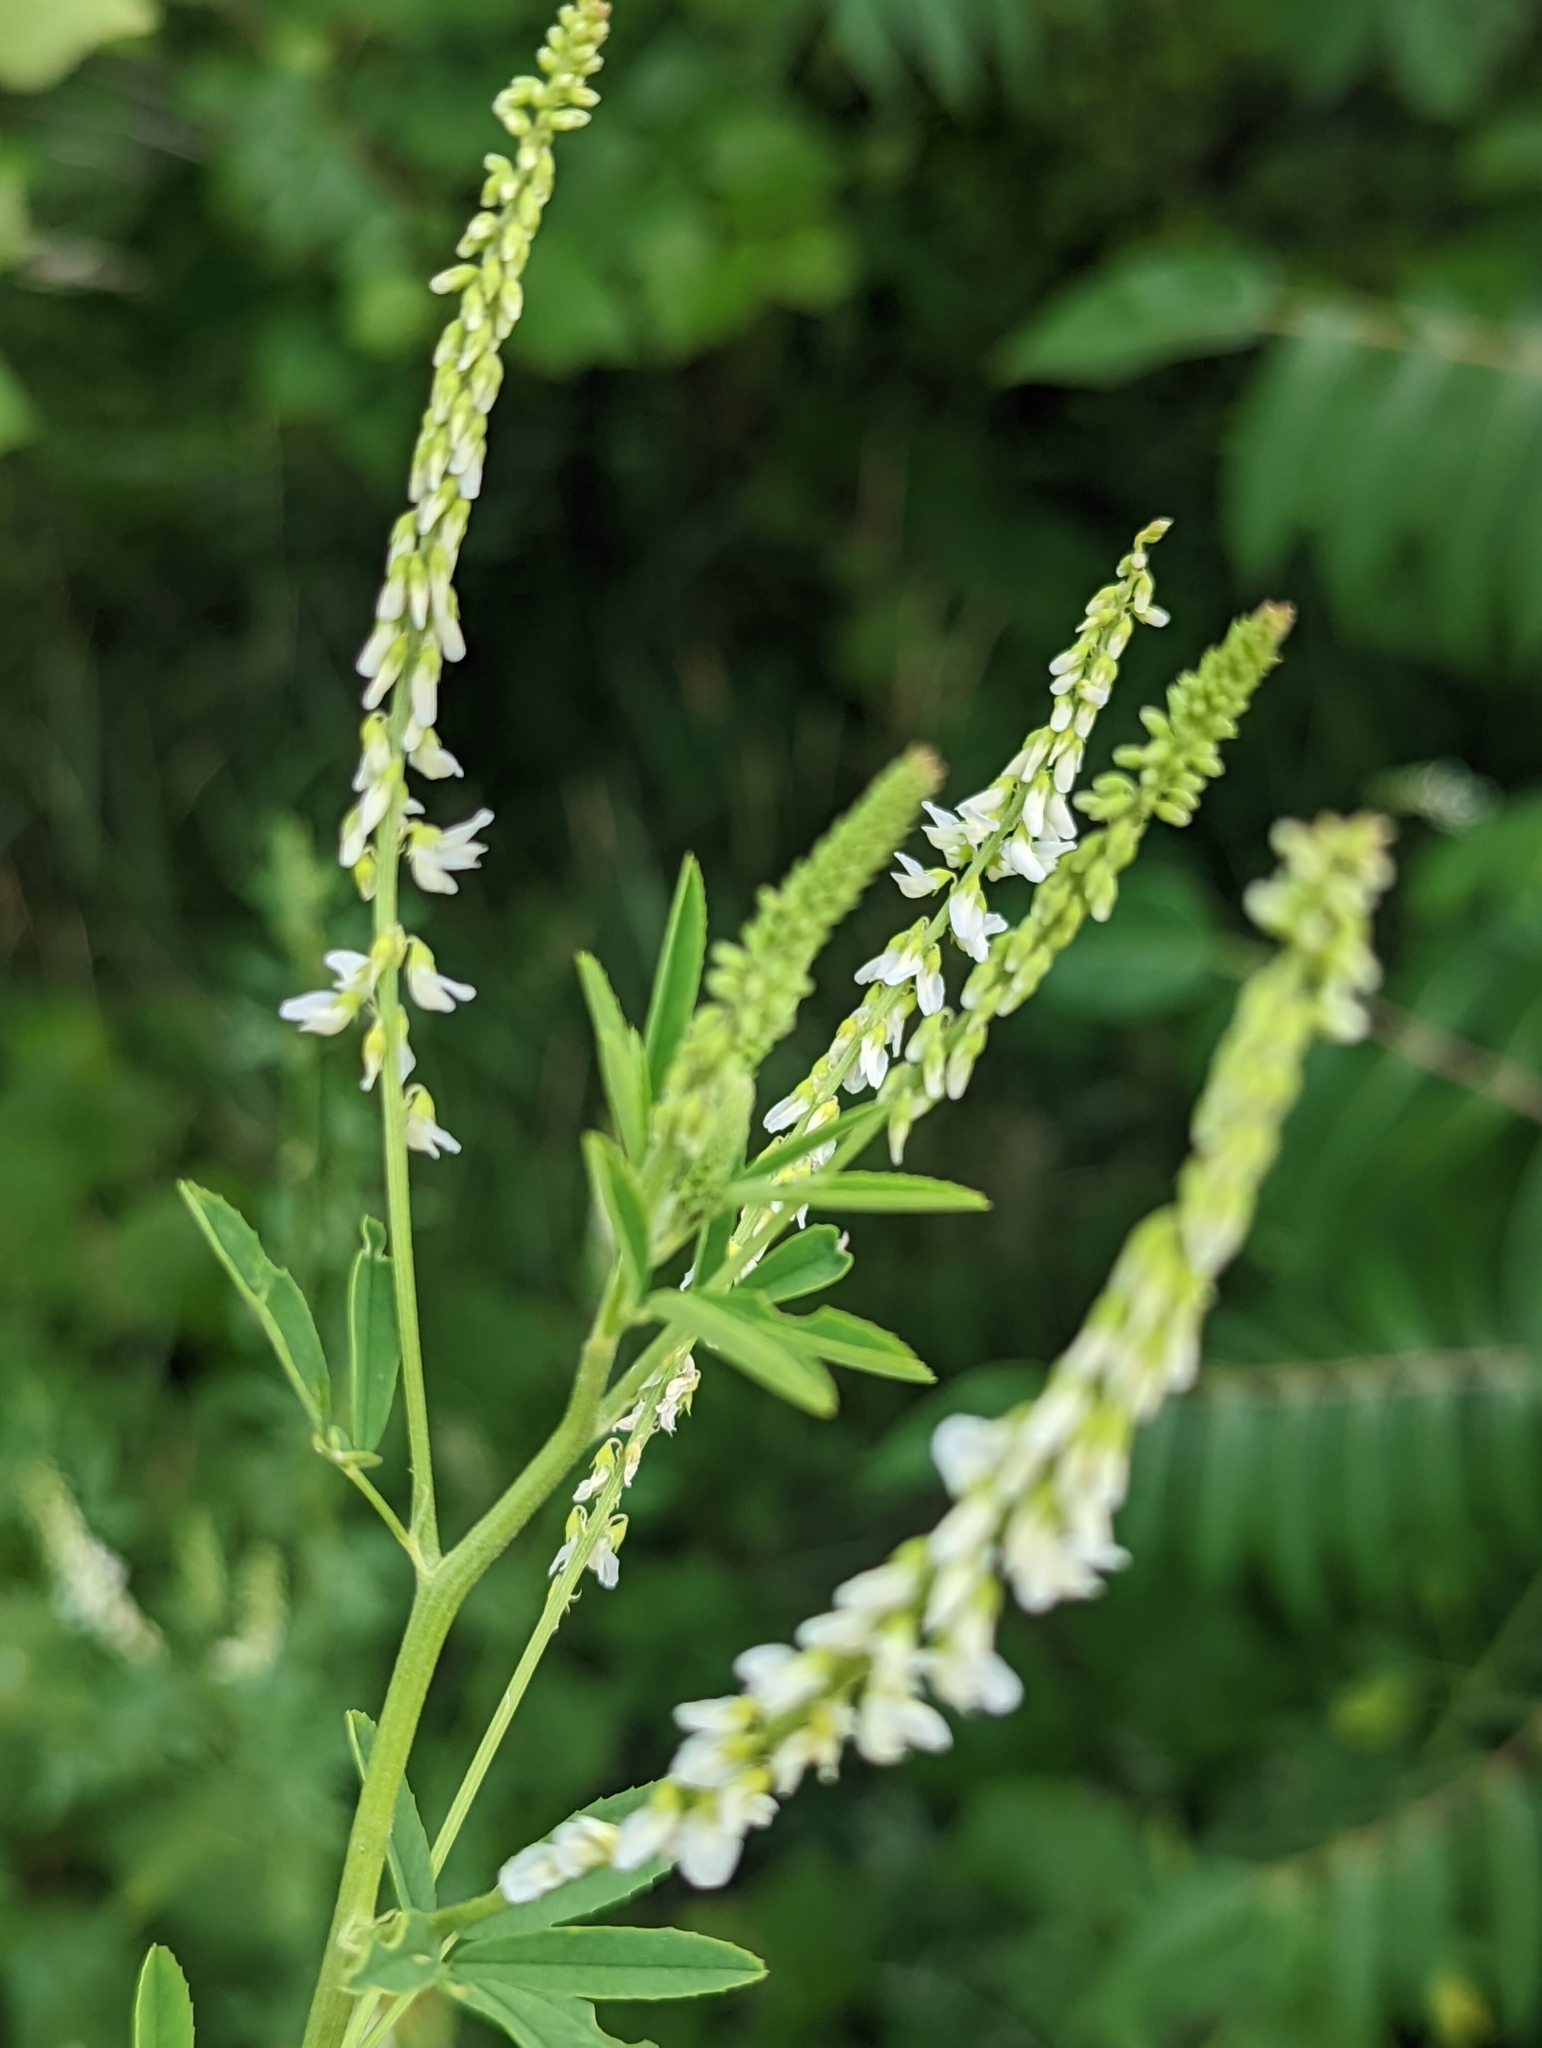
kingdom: Plantae
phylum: Tracheophyta
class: Magnoliopsida
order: Fabales
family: Fabaceae
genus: Melilotus
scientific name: Melilotus albus
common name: White melilot
